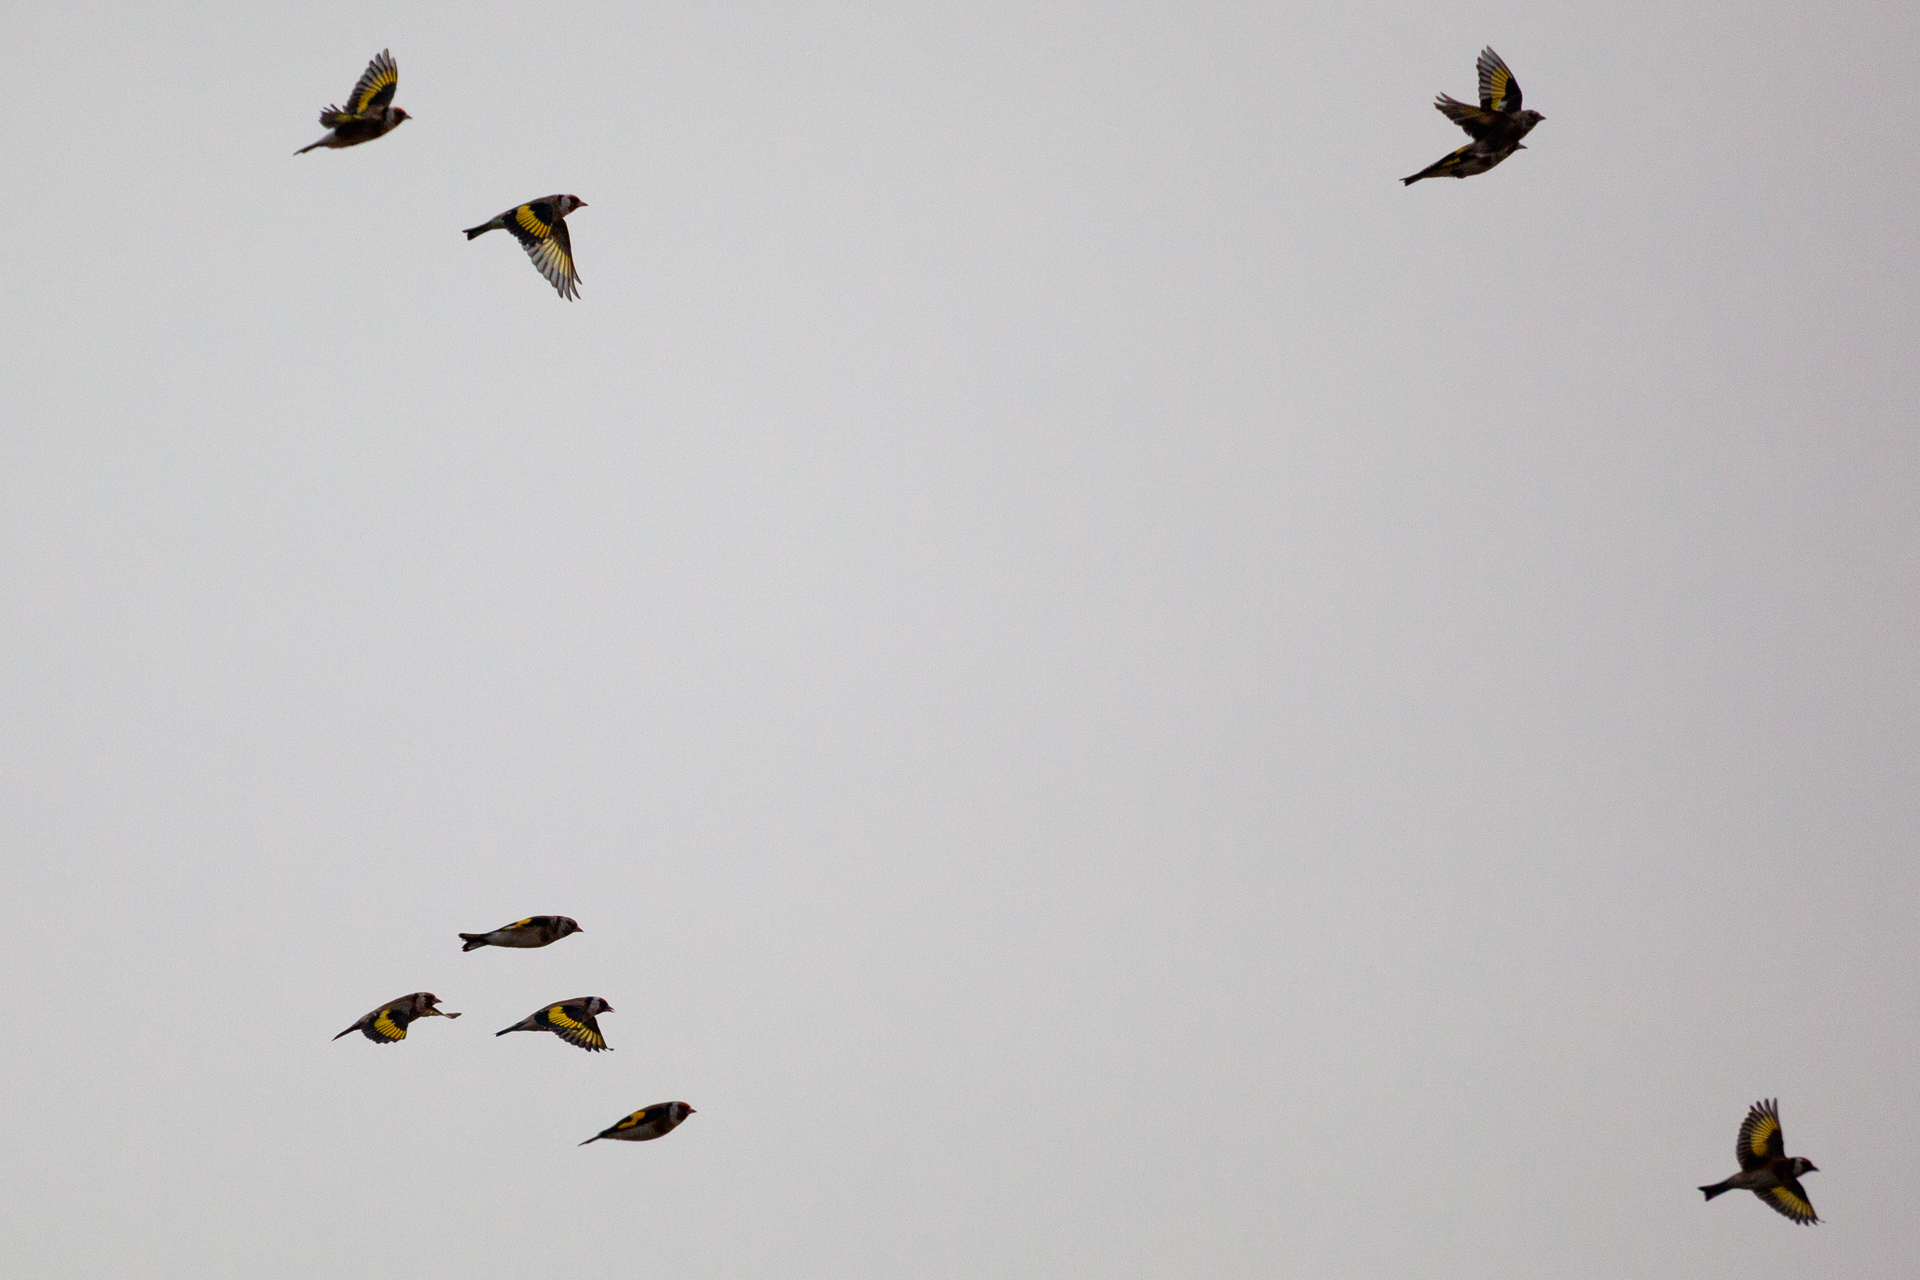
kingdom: Animalia
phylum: Chordata
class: Aves
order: Passeriformes
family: Fringillidae
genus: Carduelis
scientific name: Carduelis carduelis
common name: European goldfinch
